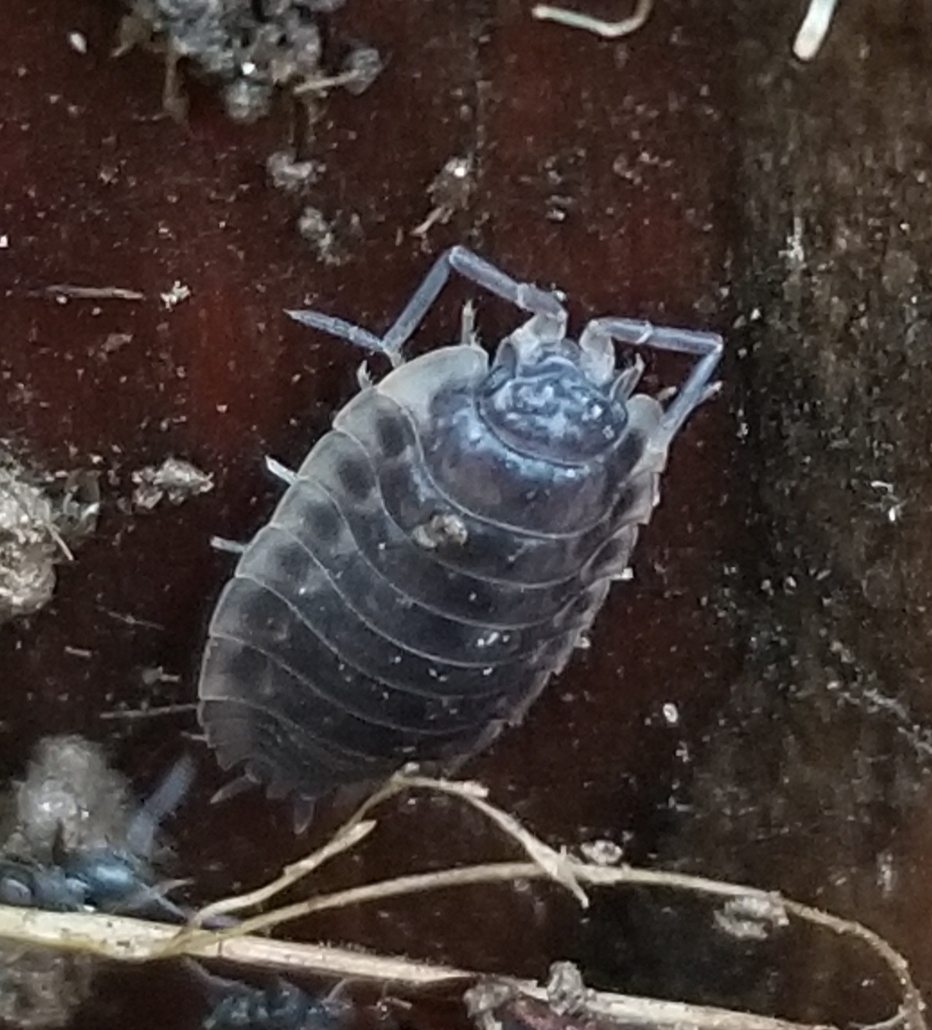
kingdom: Animalia
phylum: Arthropoda
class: Malacostraca
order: Isopoda
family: Oniscidae
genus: Oniscus
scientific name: Oniscus asellus
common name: Common shiny woodlouse
